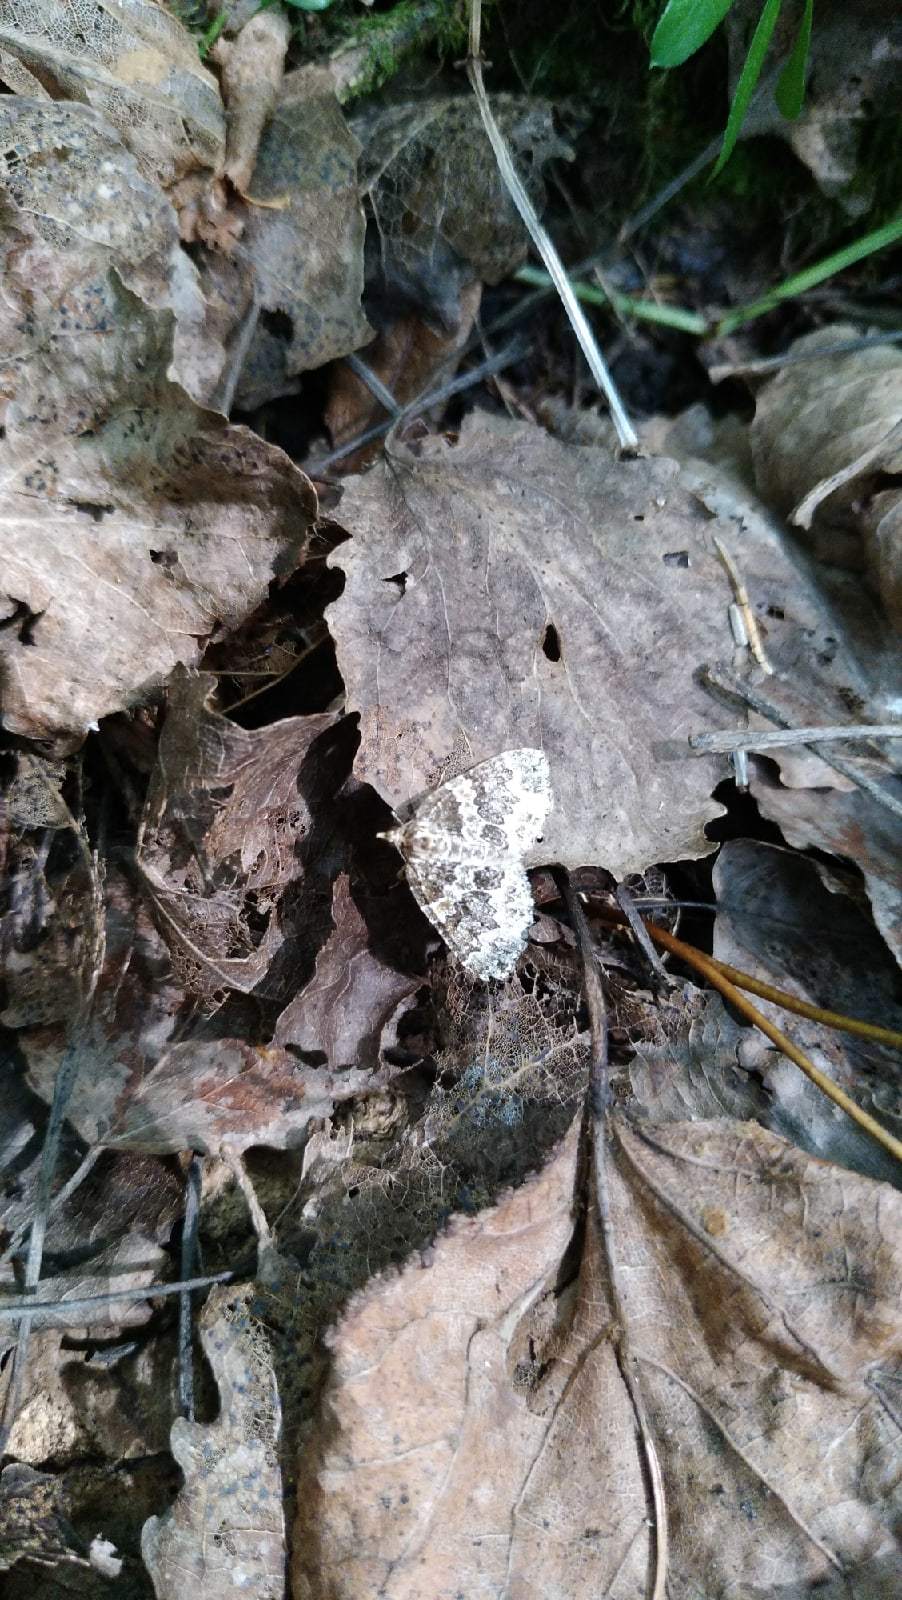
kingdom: Animalia
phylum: Arthropoda
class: Insecta
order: Lepidoptera
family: Geometridae
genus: Electrophaes
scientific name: Electrophaes corylata
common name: Broken-barred carpet
